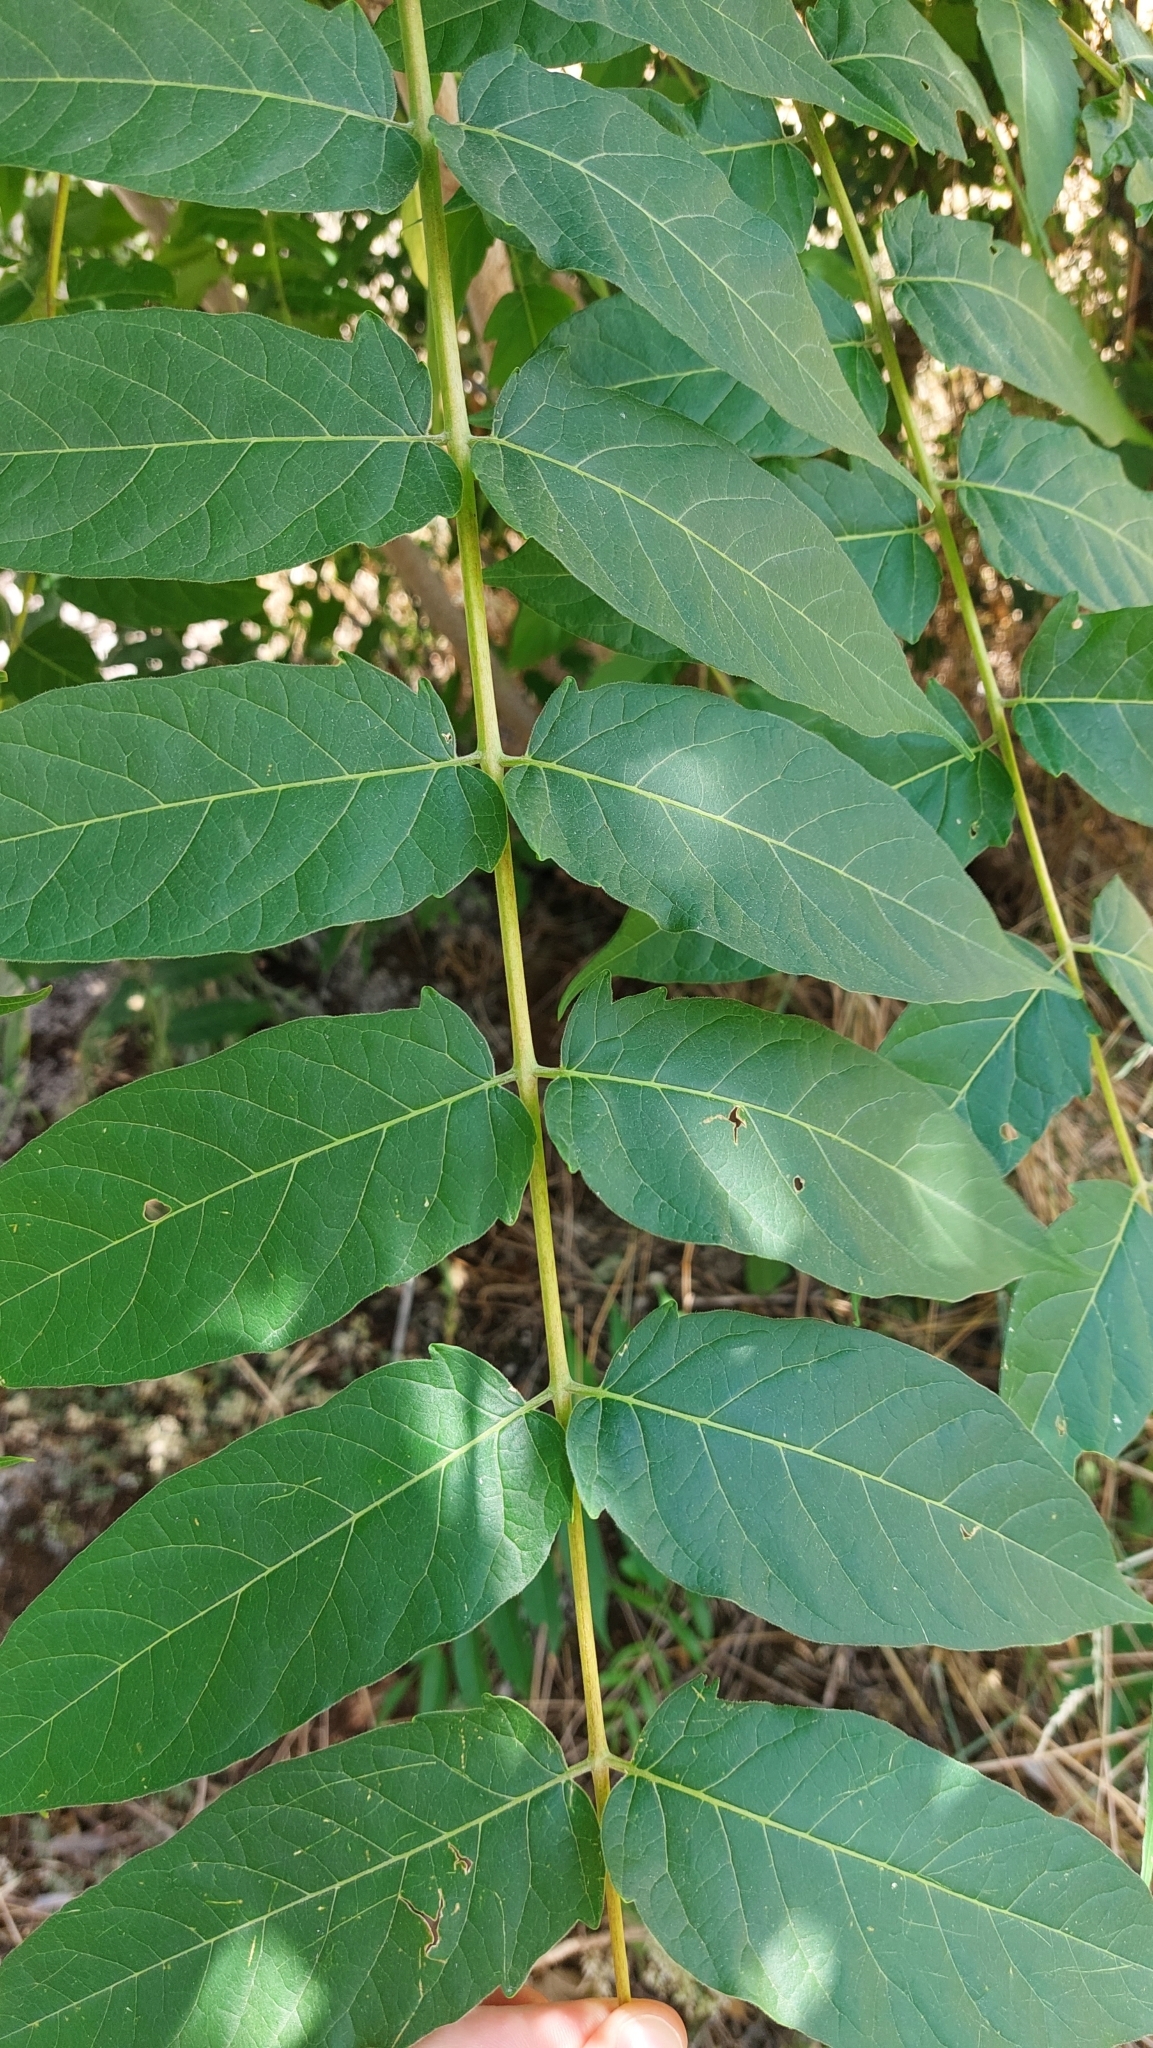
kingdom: Plantae
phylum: Tracheophyta
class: Magnoliopsida
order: Sapindales
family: Simaroubaceae
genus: Ailanthus
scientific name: Ailanthus altissima
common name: Tree-of-heaven
